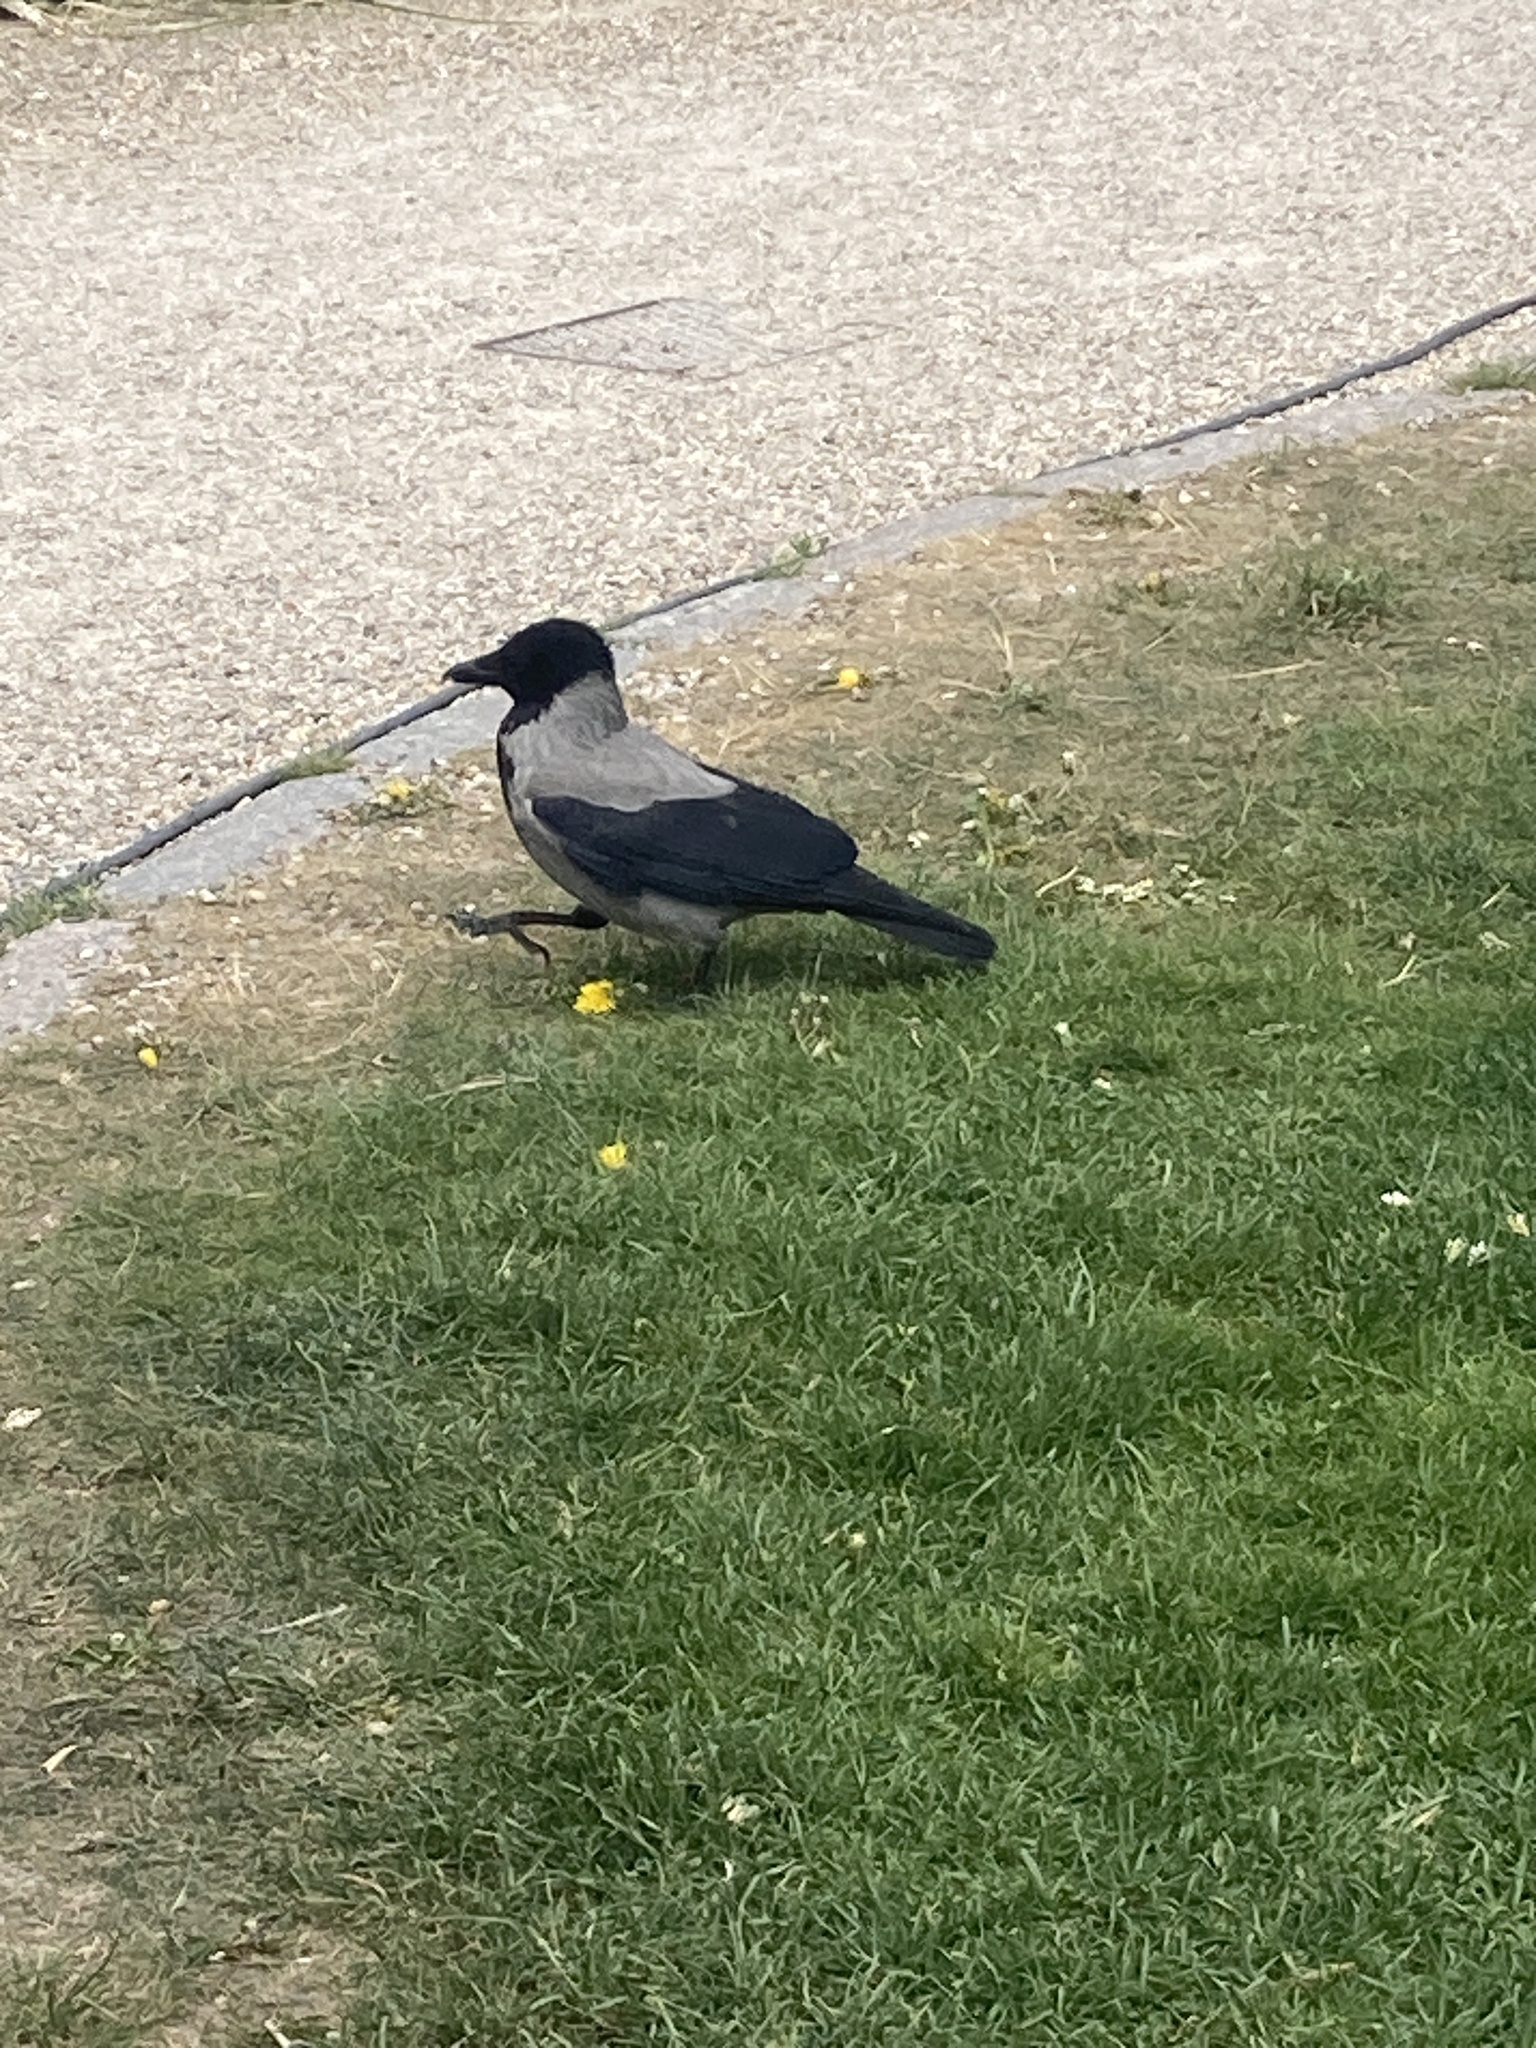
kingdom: Animalia
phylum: Chordata
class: Aves
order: Passeriformes
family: Corvidae
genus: Corvus
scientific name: Corvus cornix
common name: Hooded crow
